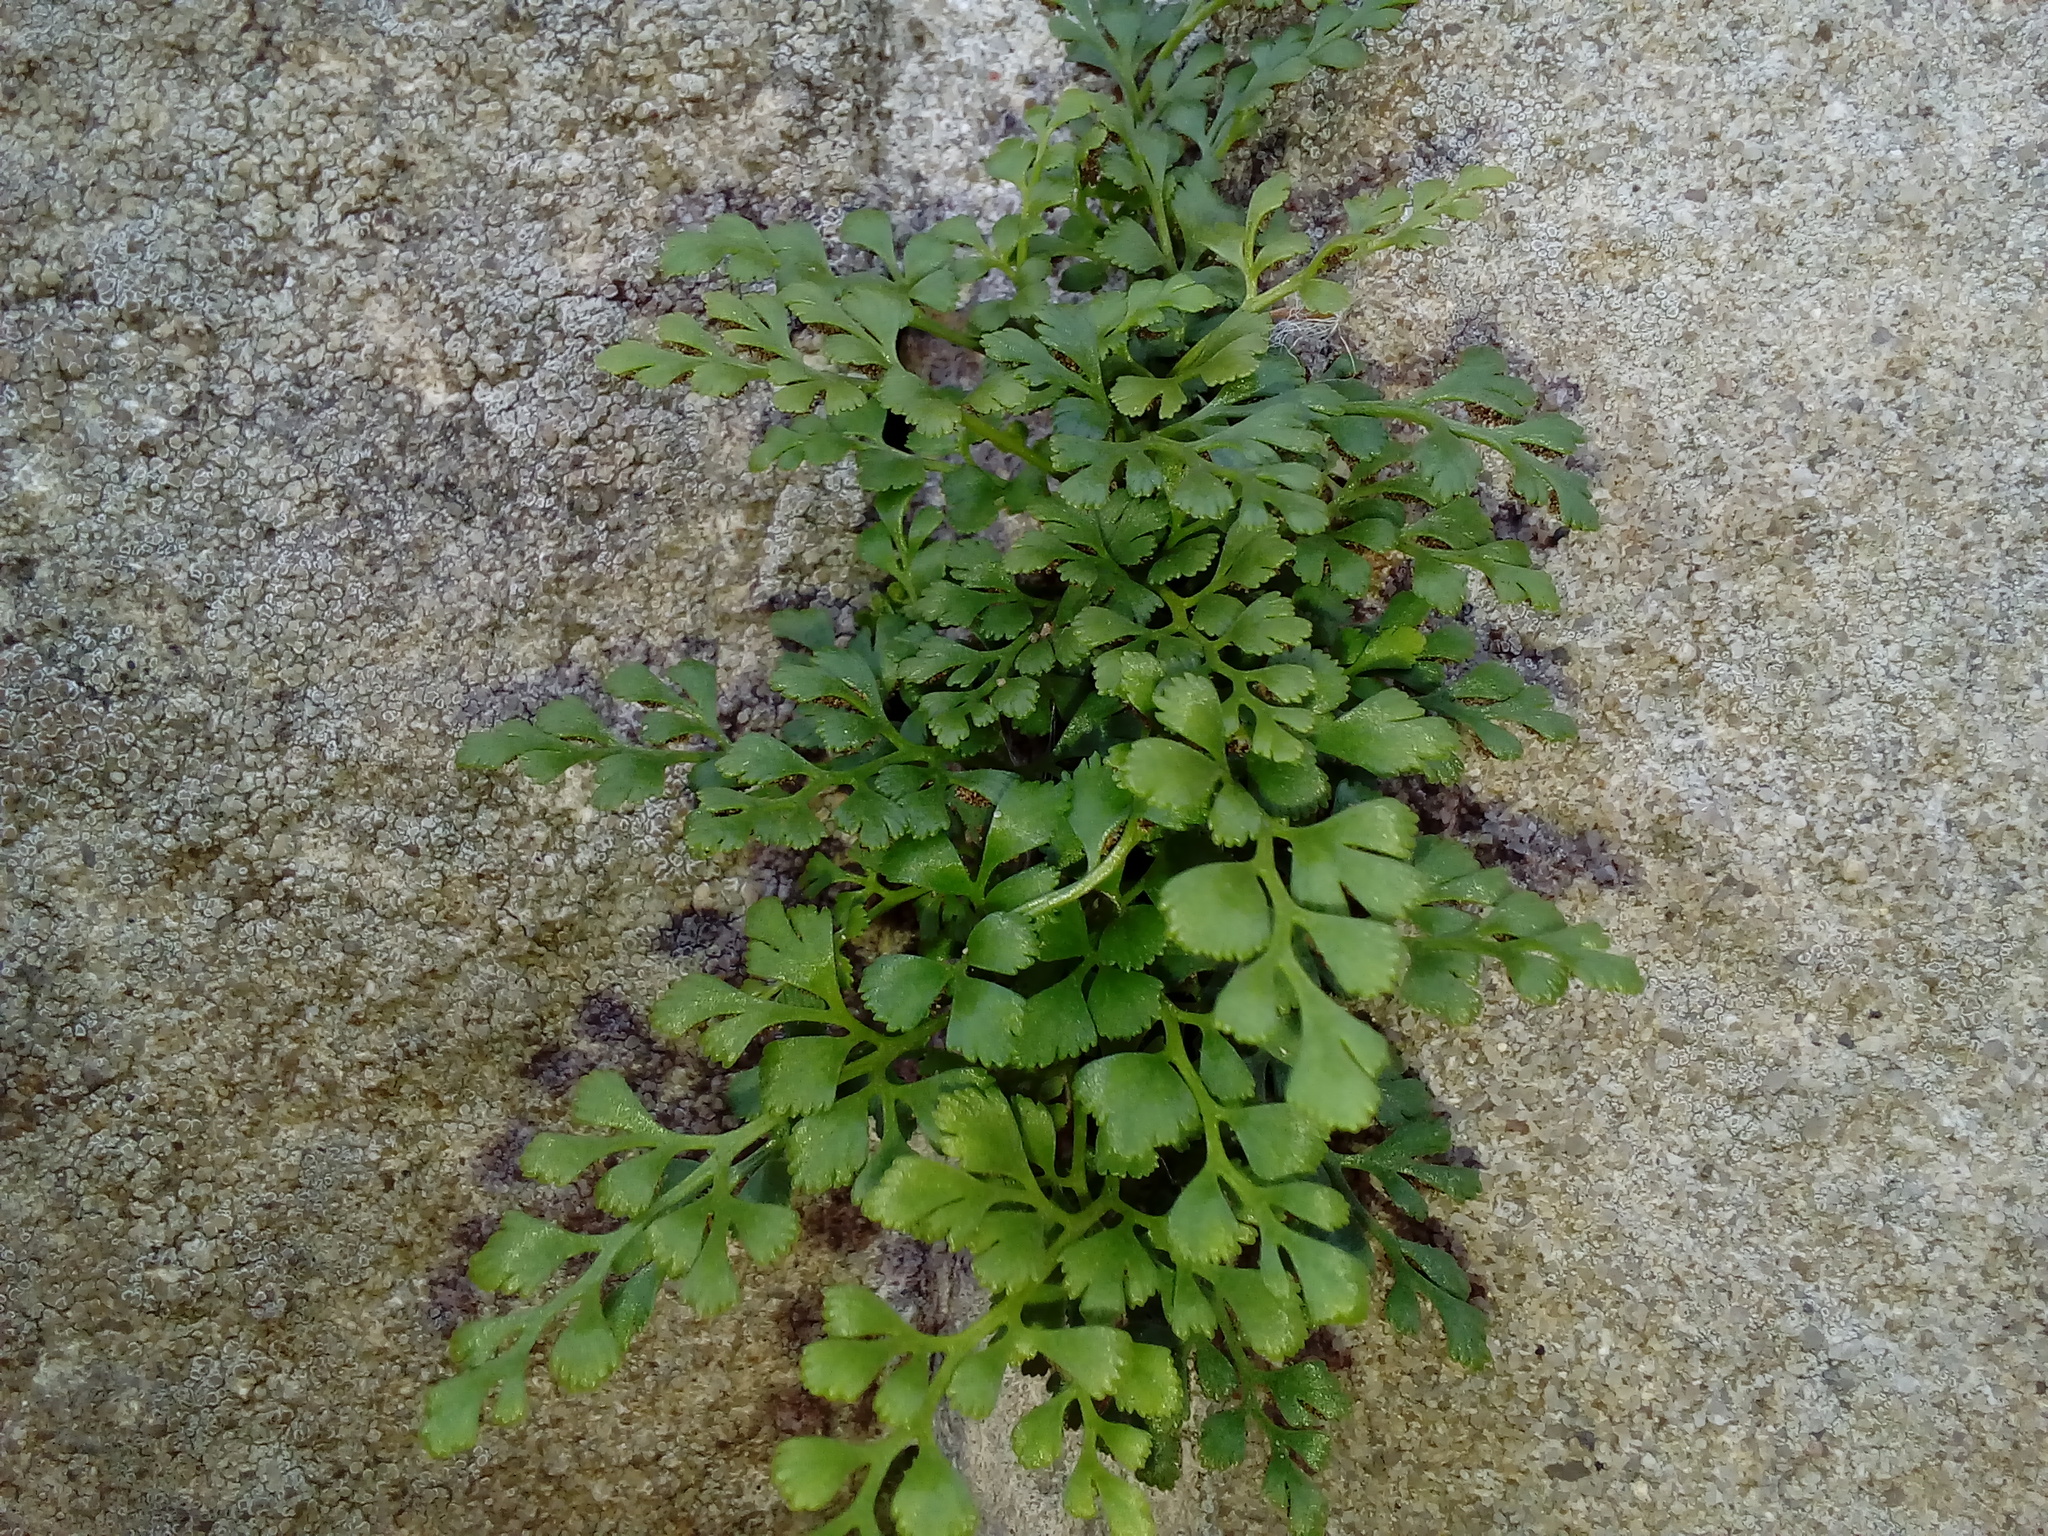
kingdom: Plantae
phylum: Tracheophyta
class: Polypodiopsida
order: Polypodiales
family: Aspleniaceae
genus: Asplenium
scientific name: Asplenium ruta-muraria
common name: Wall-rue
